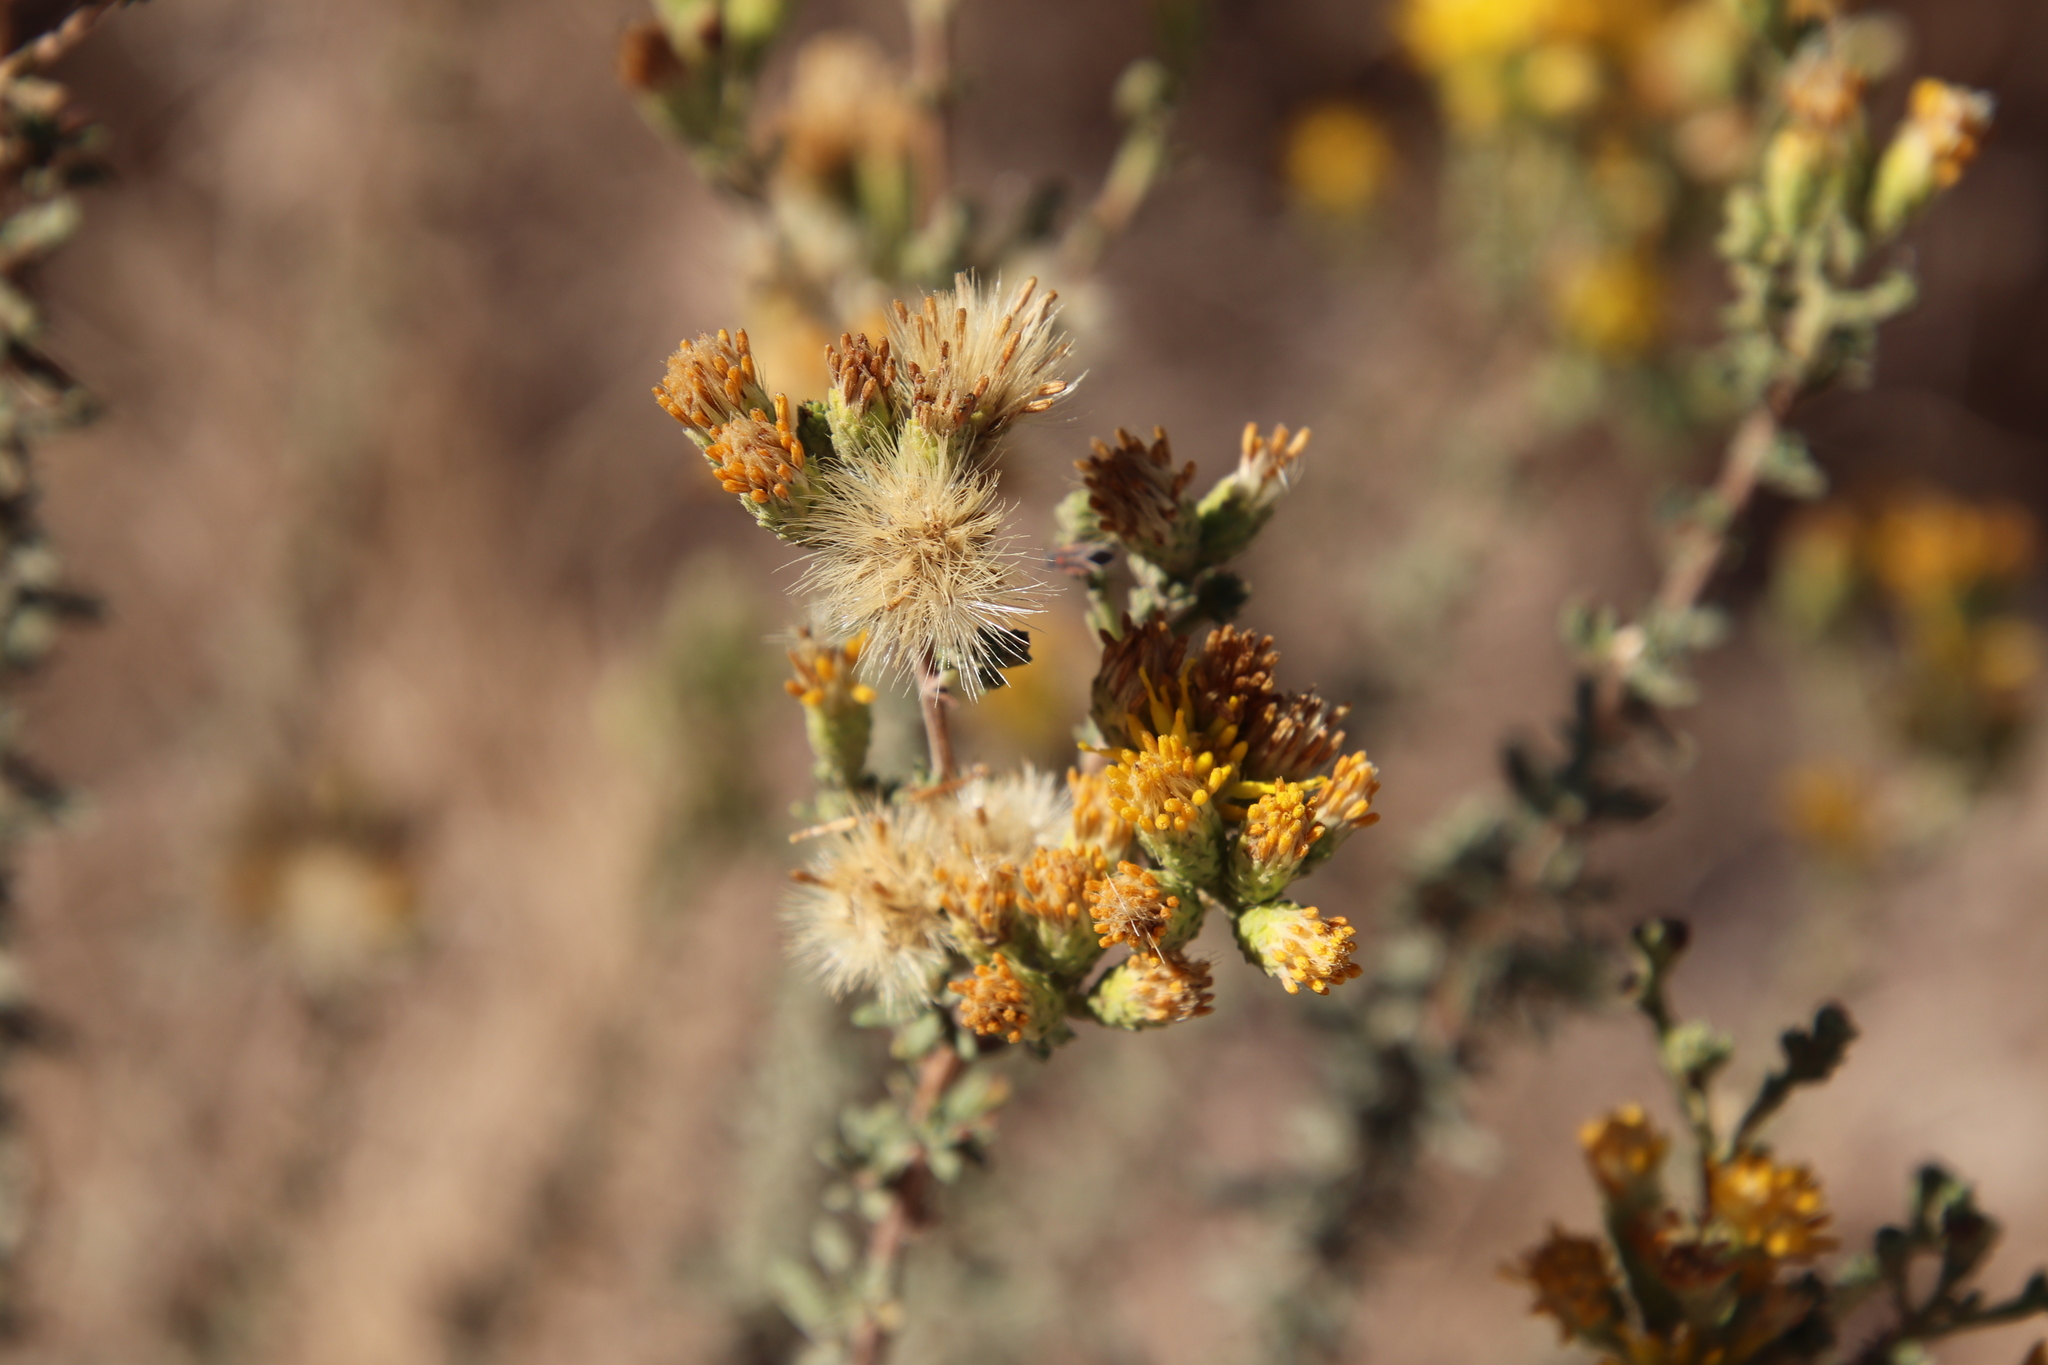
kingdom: Plantae
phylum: Tracheophyta
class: Magnoliopsida
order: Asterales
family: Asteraceae
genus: Isocoma
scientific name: Isocoma menziesii
